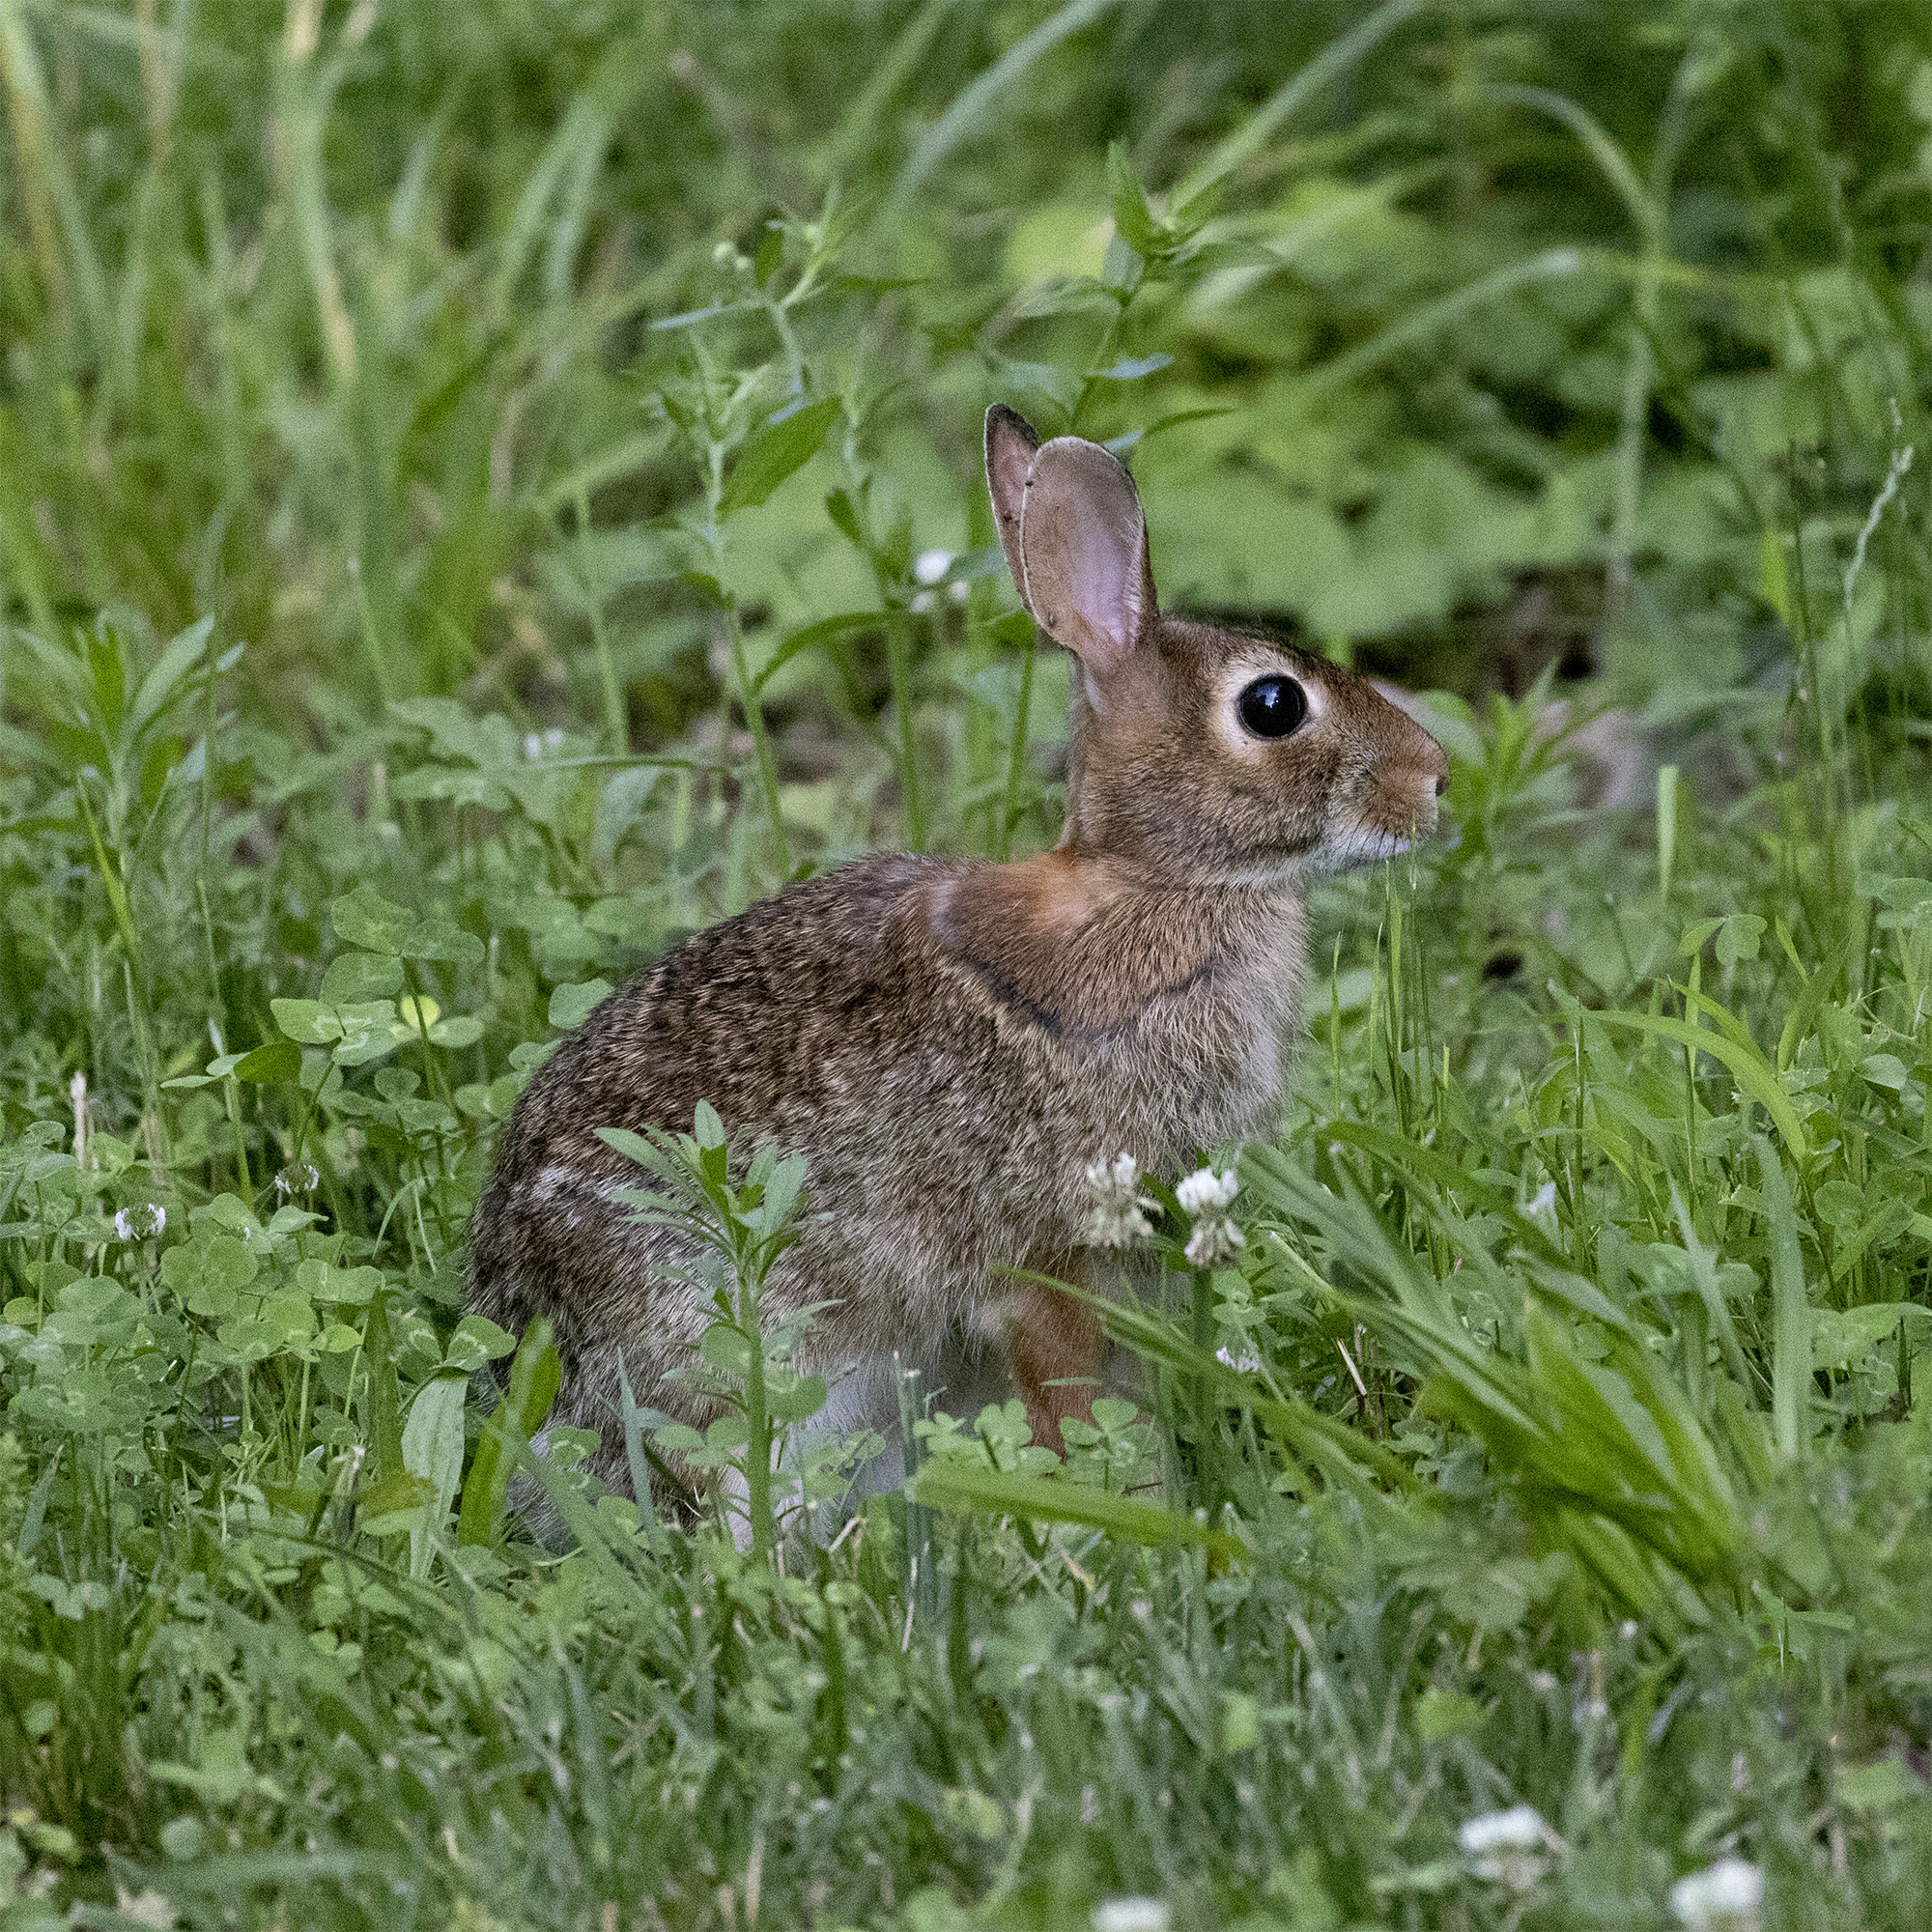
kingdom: Animalia
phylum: Chordata
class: Mammalia
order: Lagomorpha
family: Leporidae
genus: Sylvilagus
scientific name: Sylvilagus floridanus
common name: Eastern cottontail
